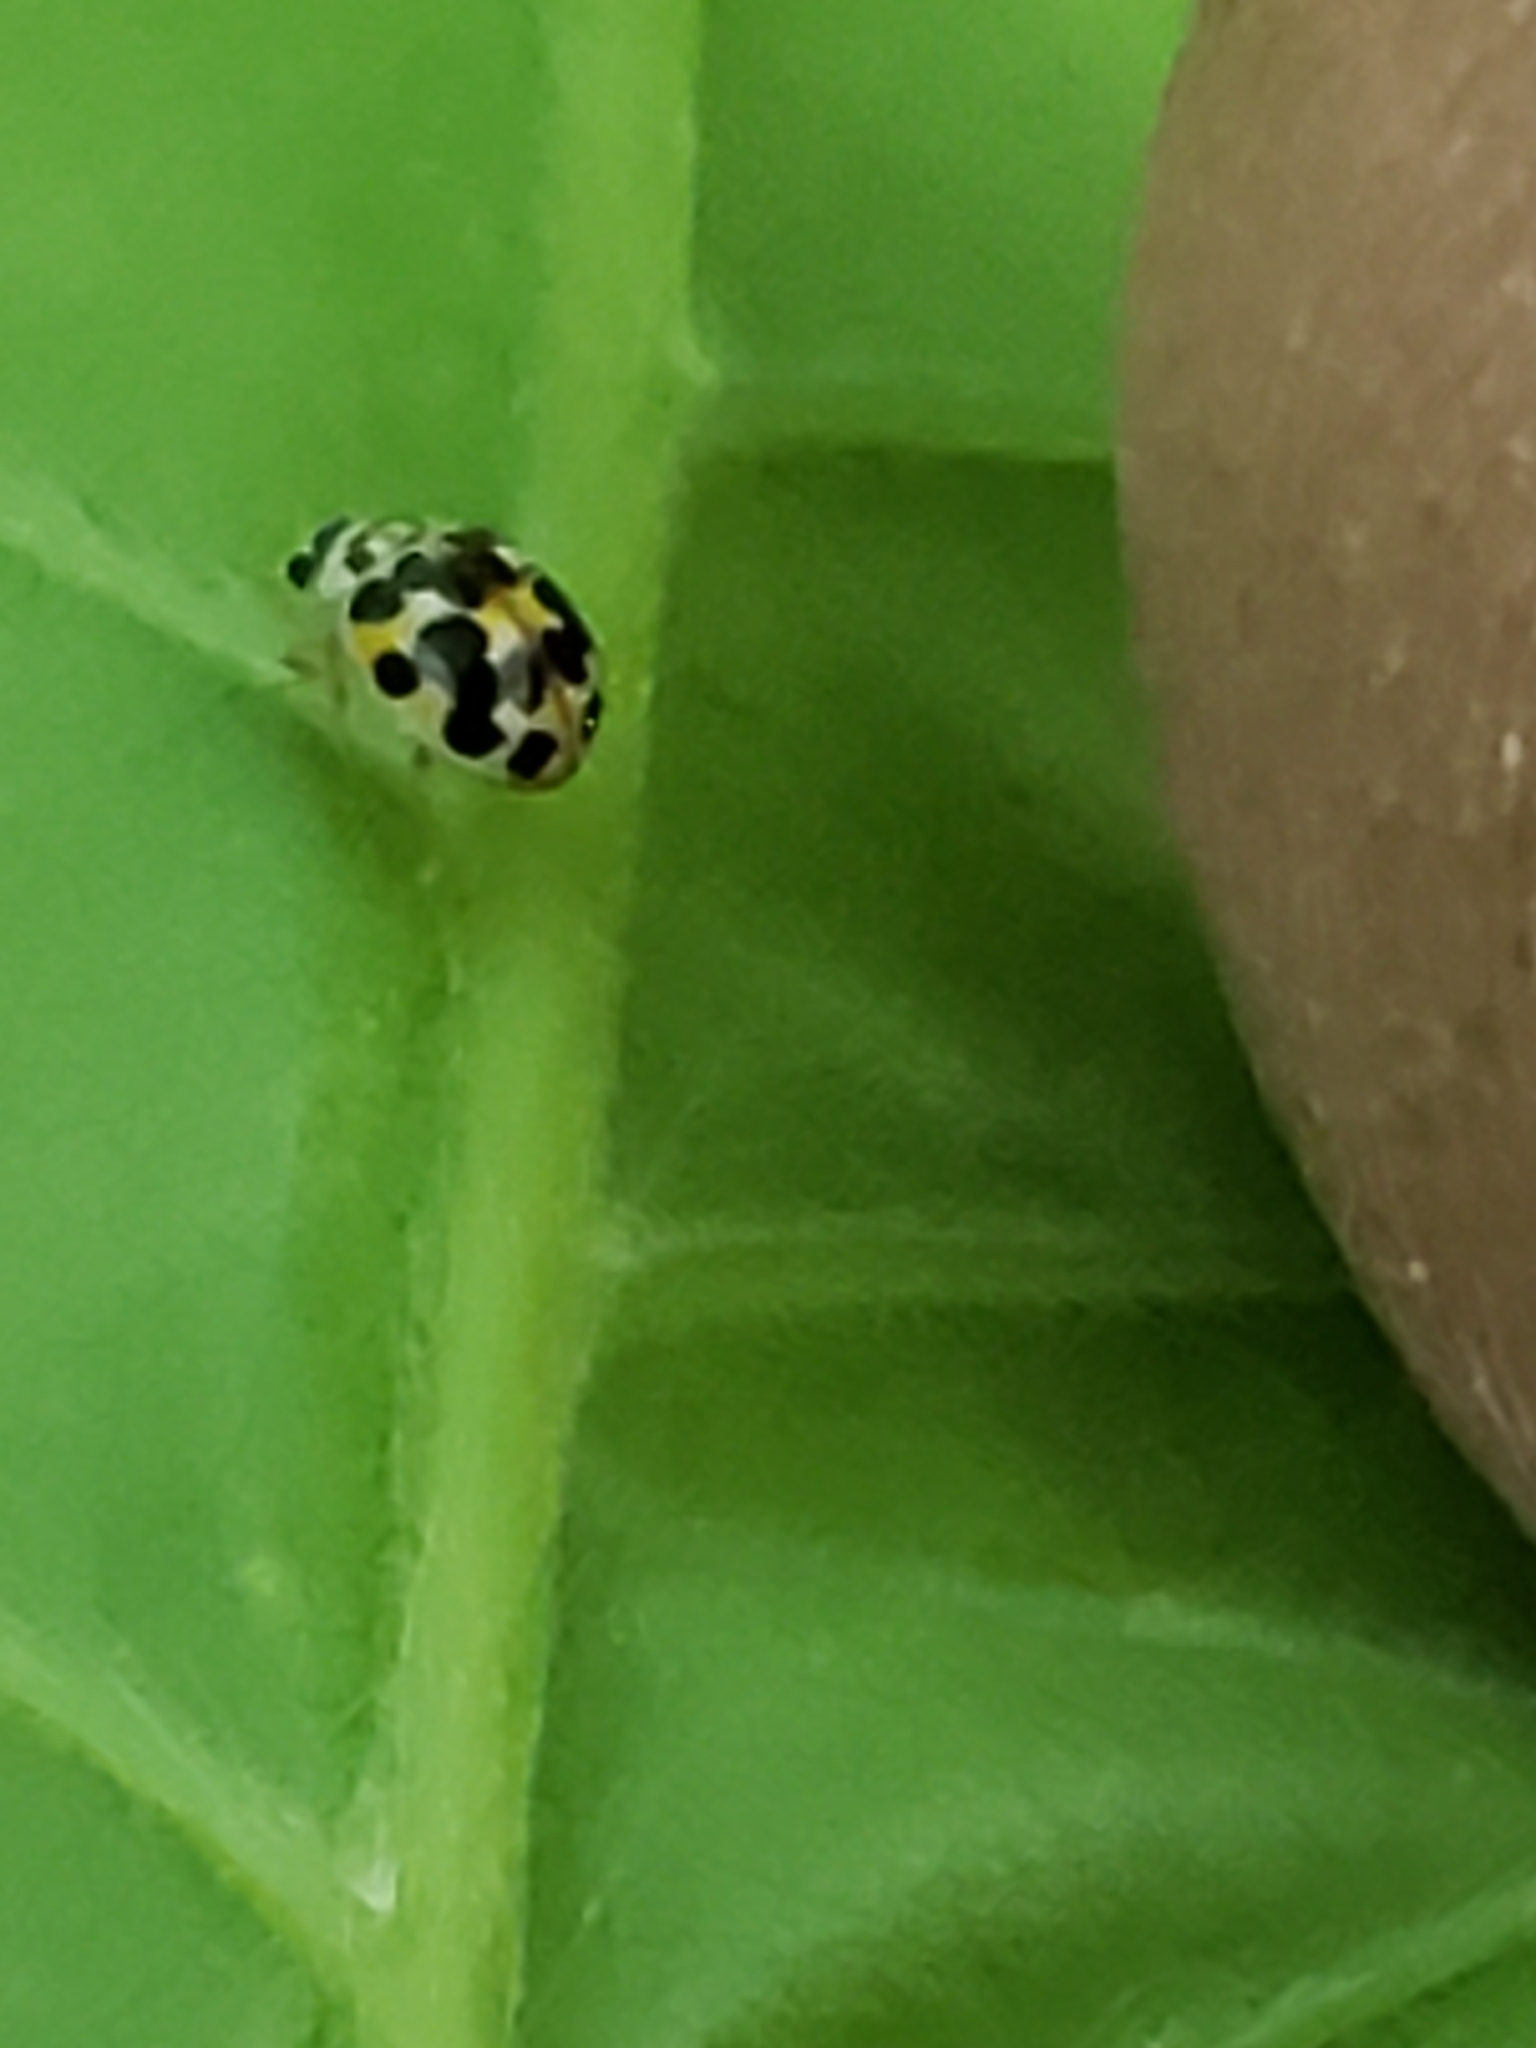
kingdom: Animalia
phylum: Arthropoda
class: Insecta
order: Coleoptera
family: Coccinellidae
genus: Psyllobora
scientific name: Psyllobora vigintimaculata
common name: Ladybird beetle
